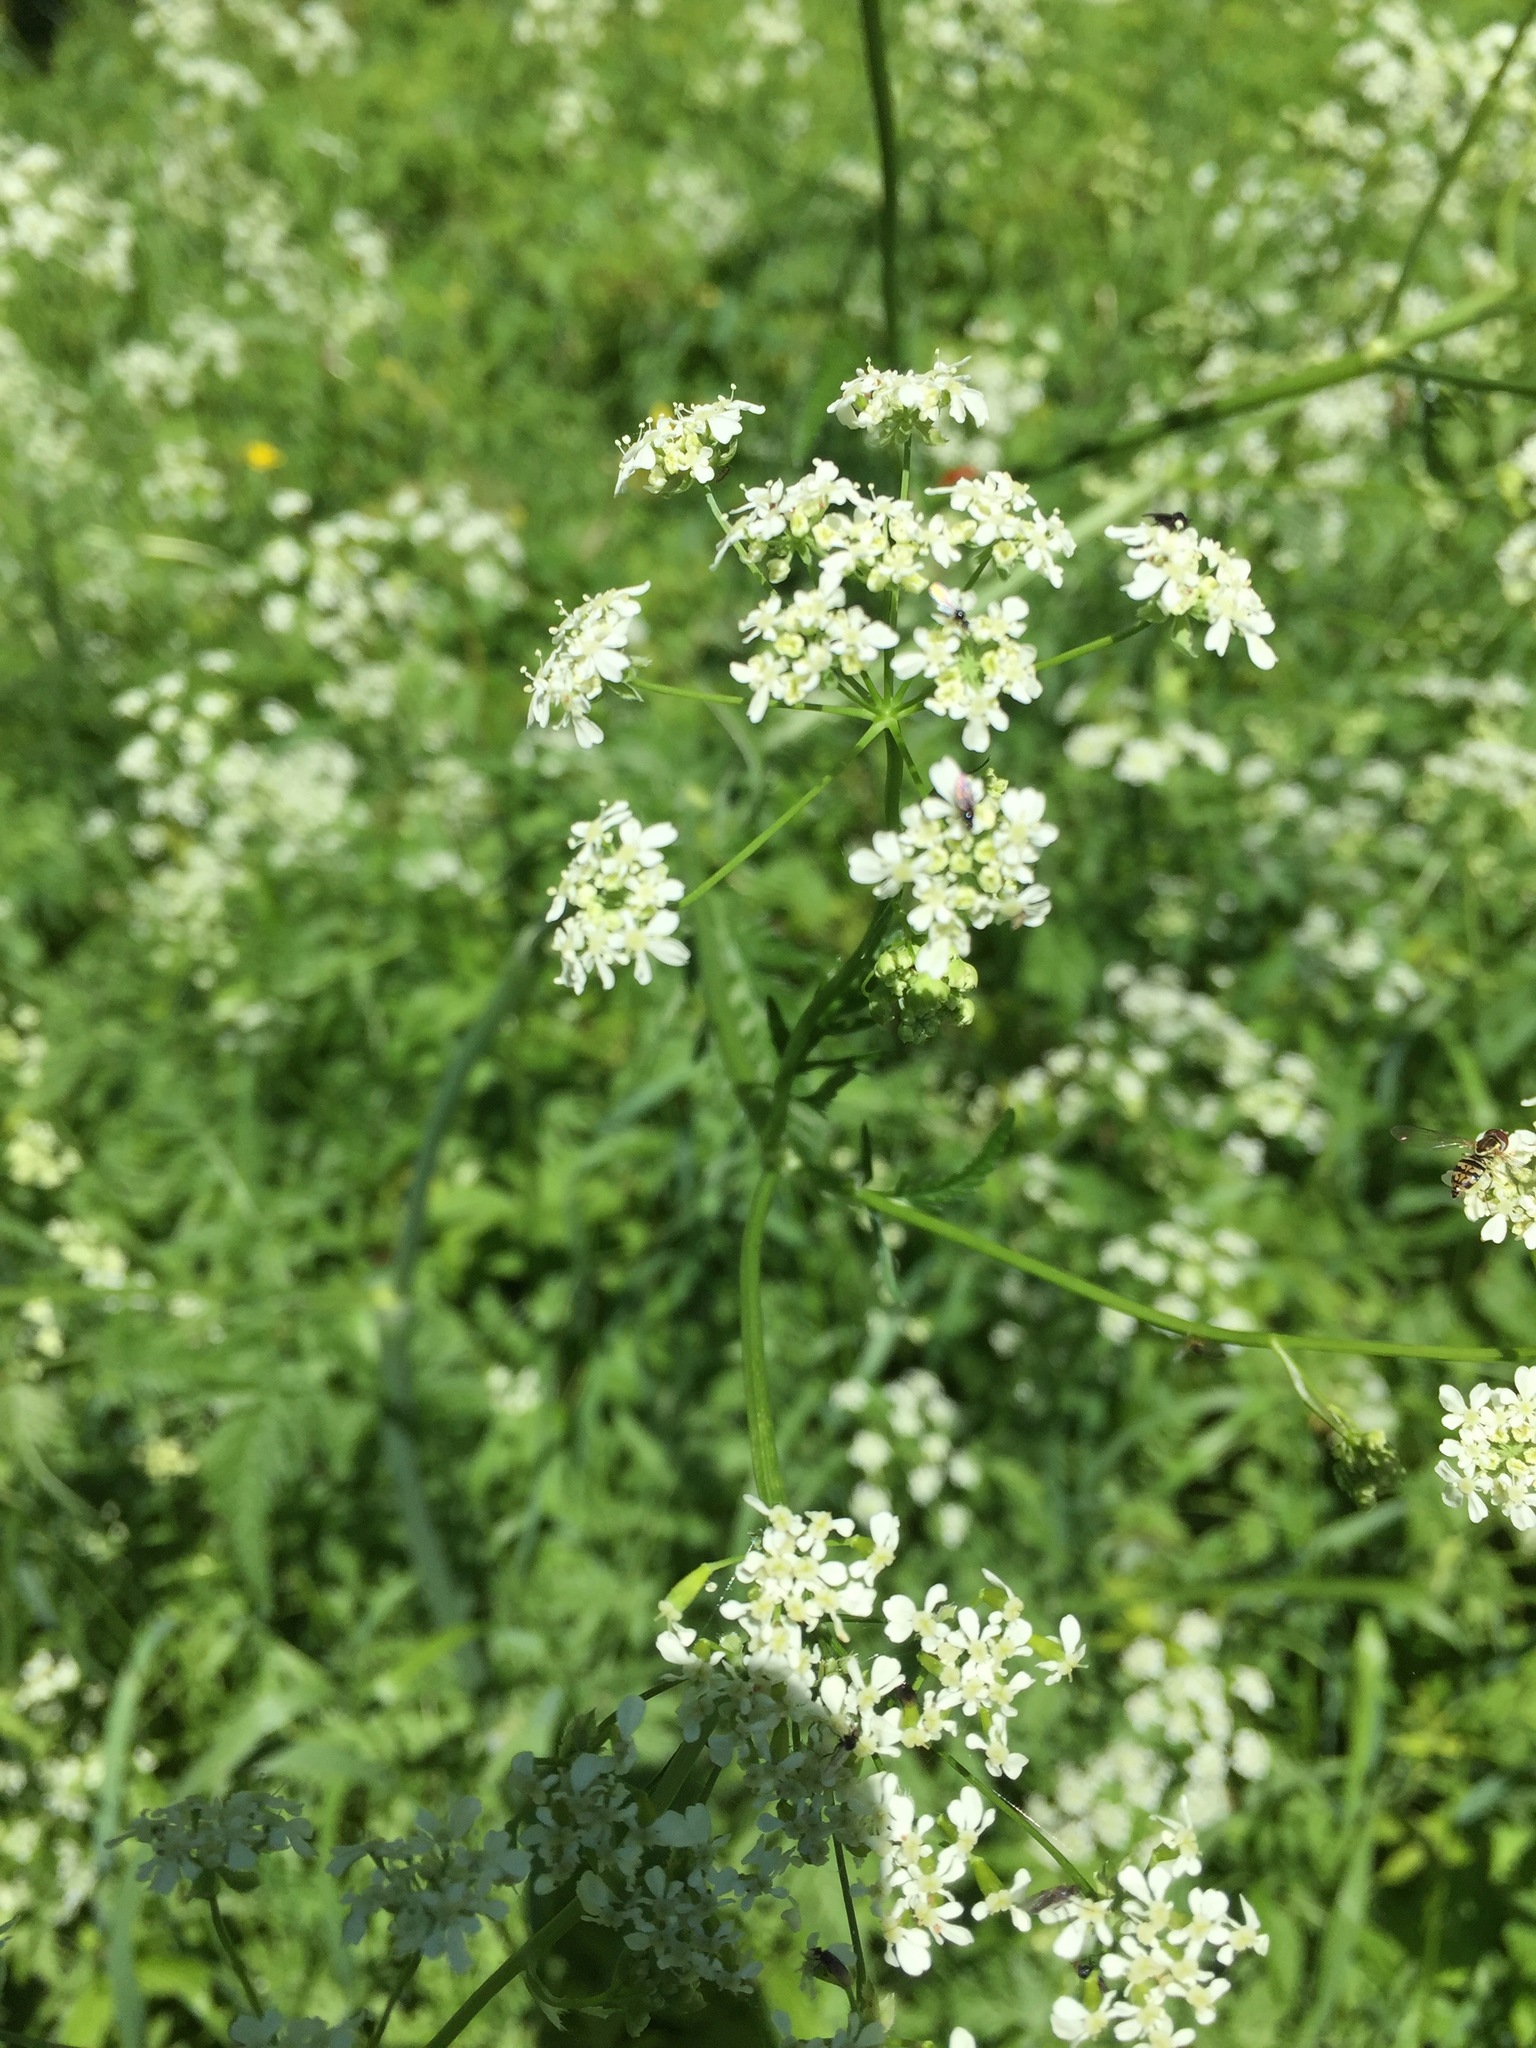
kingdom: Plantae
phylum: Tracheophyta
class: Magnoliopsida
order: Apiales
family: Apiaceae
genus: Anthriscus
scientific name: Anthriscus sylvestris
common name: Cow parsley
